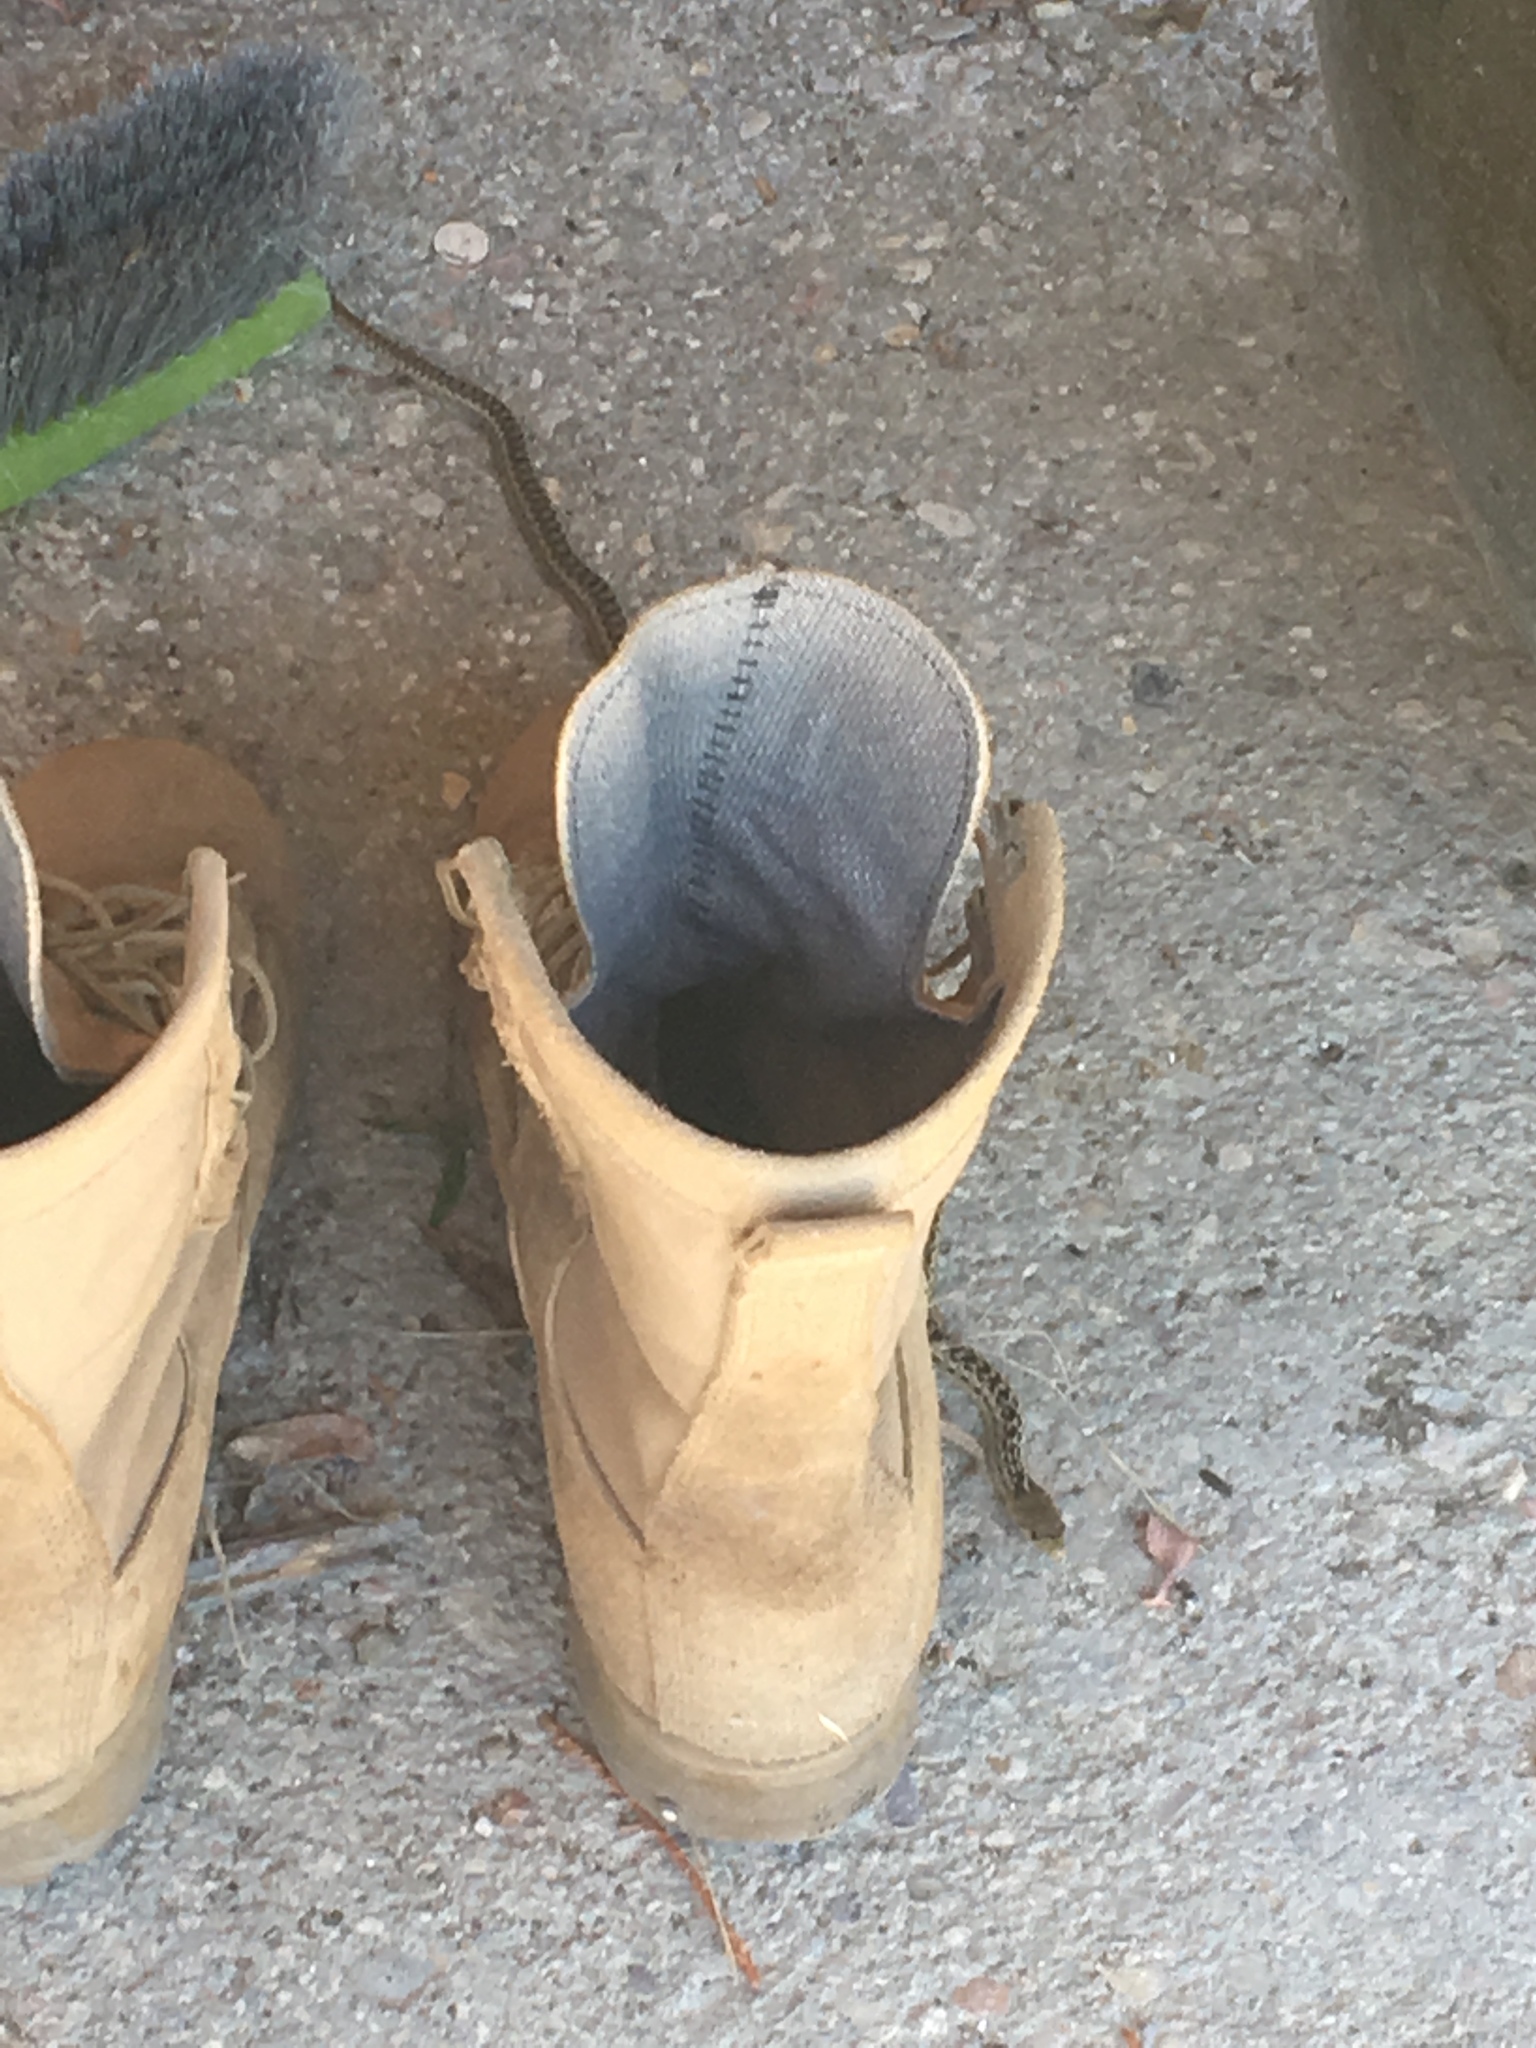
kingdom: Animalia
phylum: Chordata
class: Squamata
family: Colubridae
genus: Pituophis
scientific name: Pituophis catenifer
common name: Gopher snake
